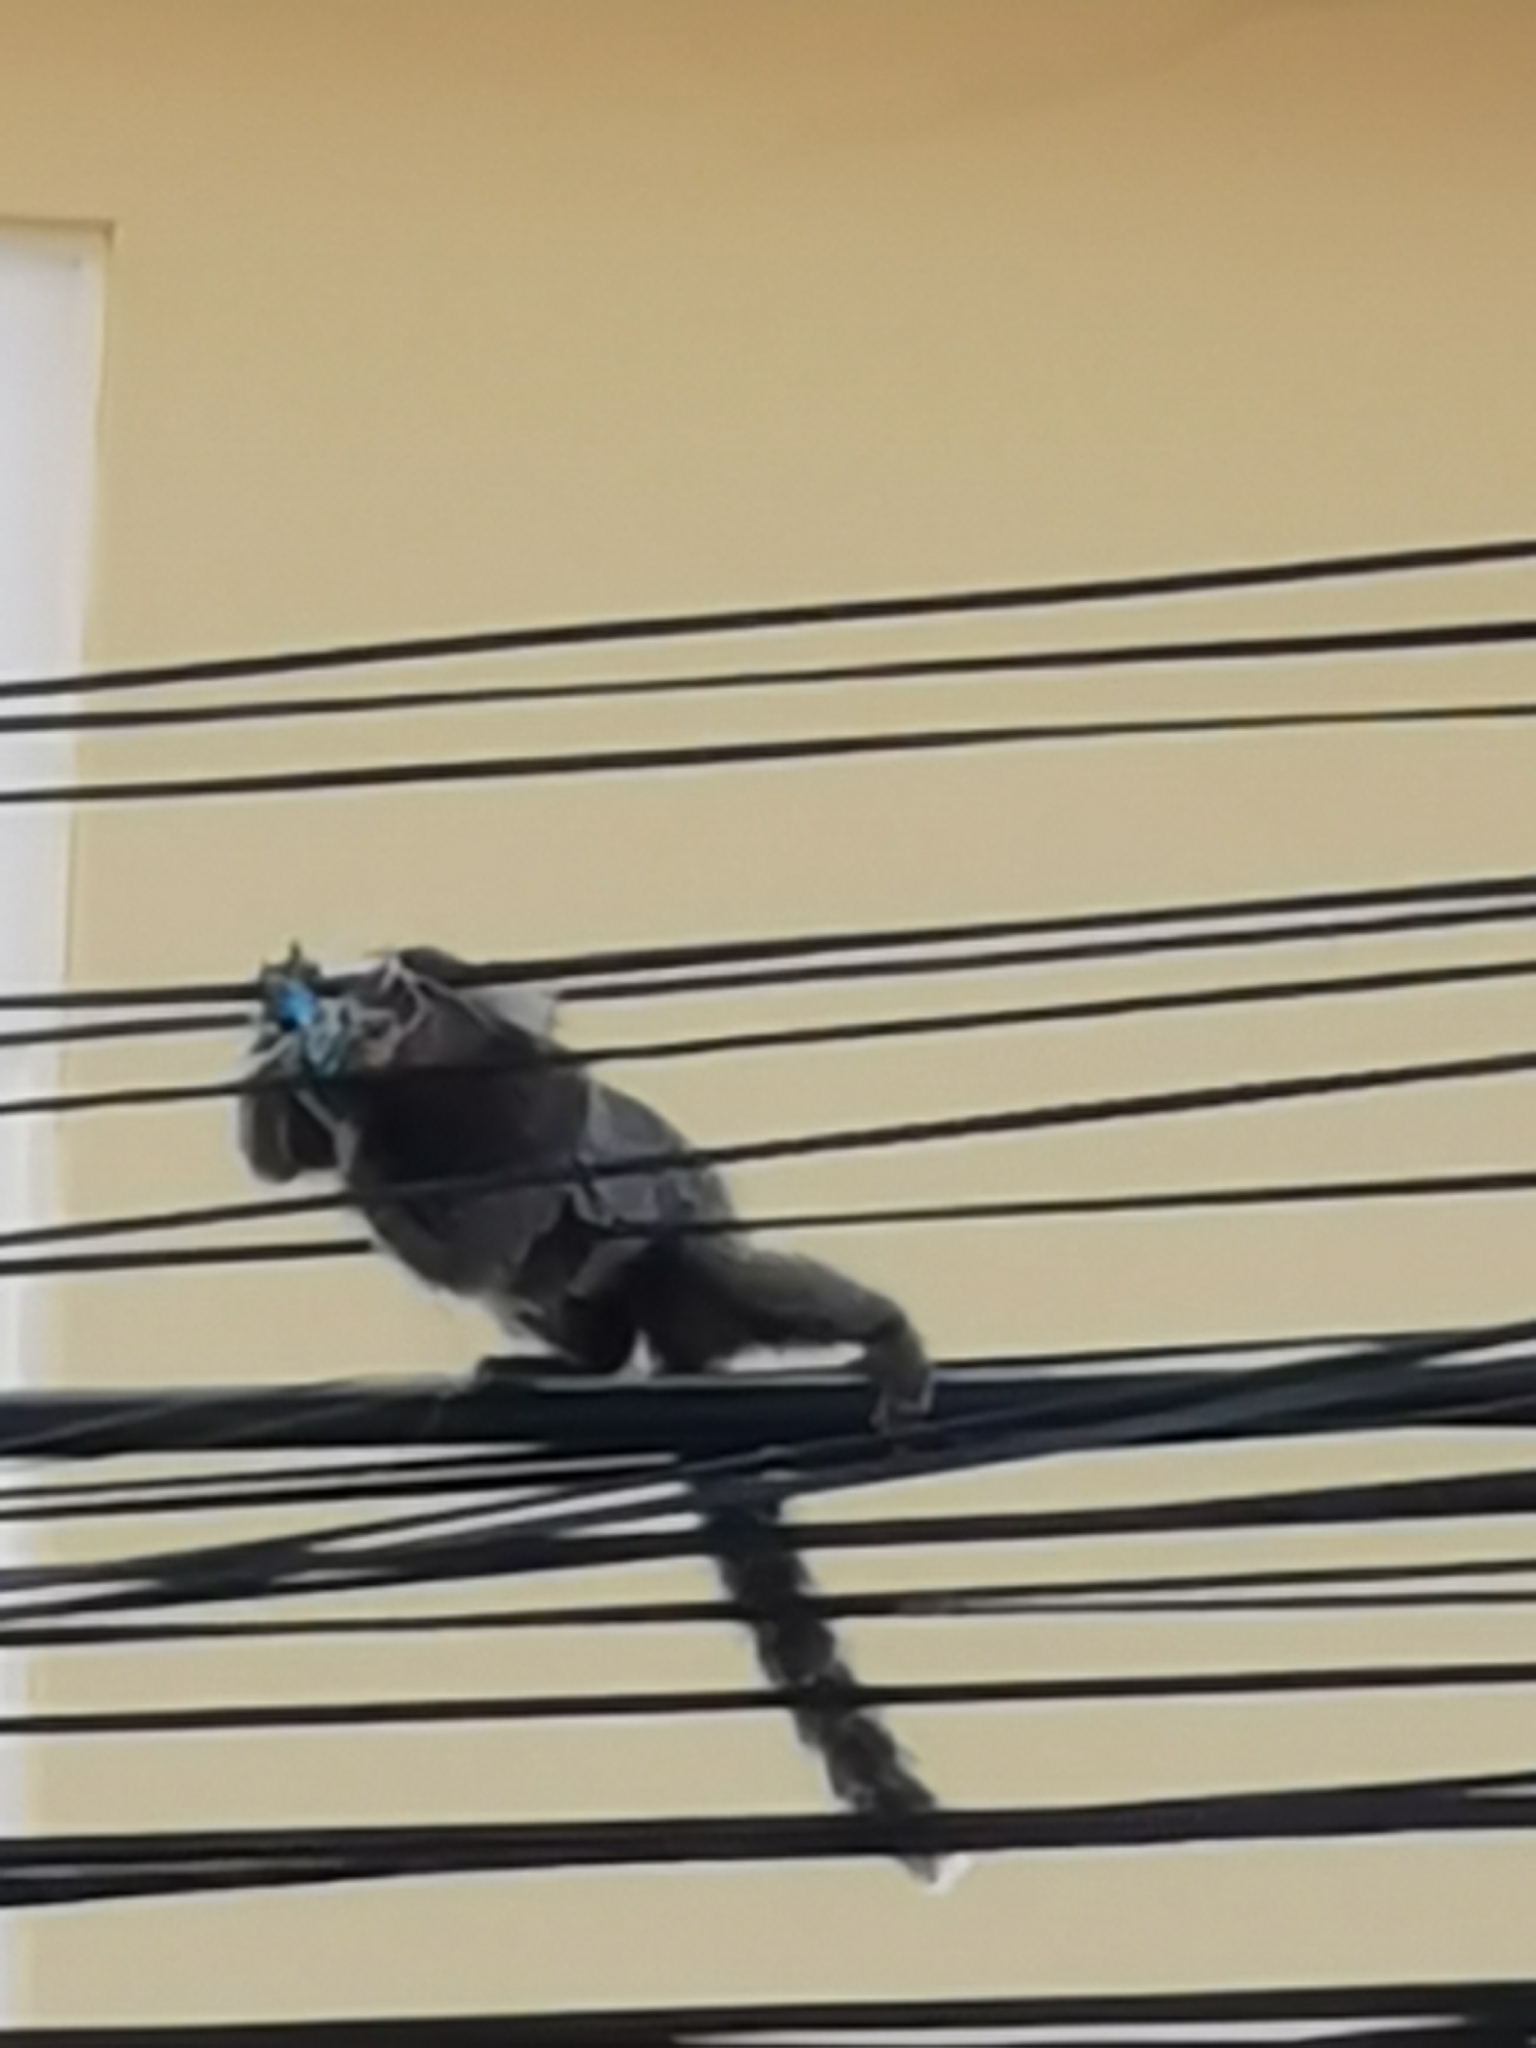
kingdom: Animalia
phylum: Chordata
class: Mammalia
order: Primates
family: Callitrichidae
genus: Callithrix
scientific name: Callithrix jacchus
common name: Common marmoset
